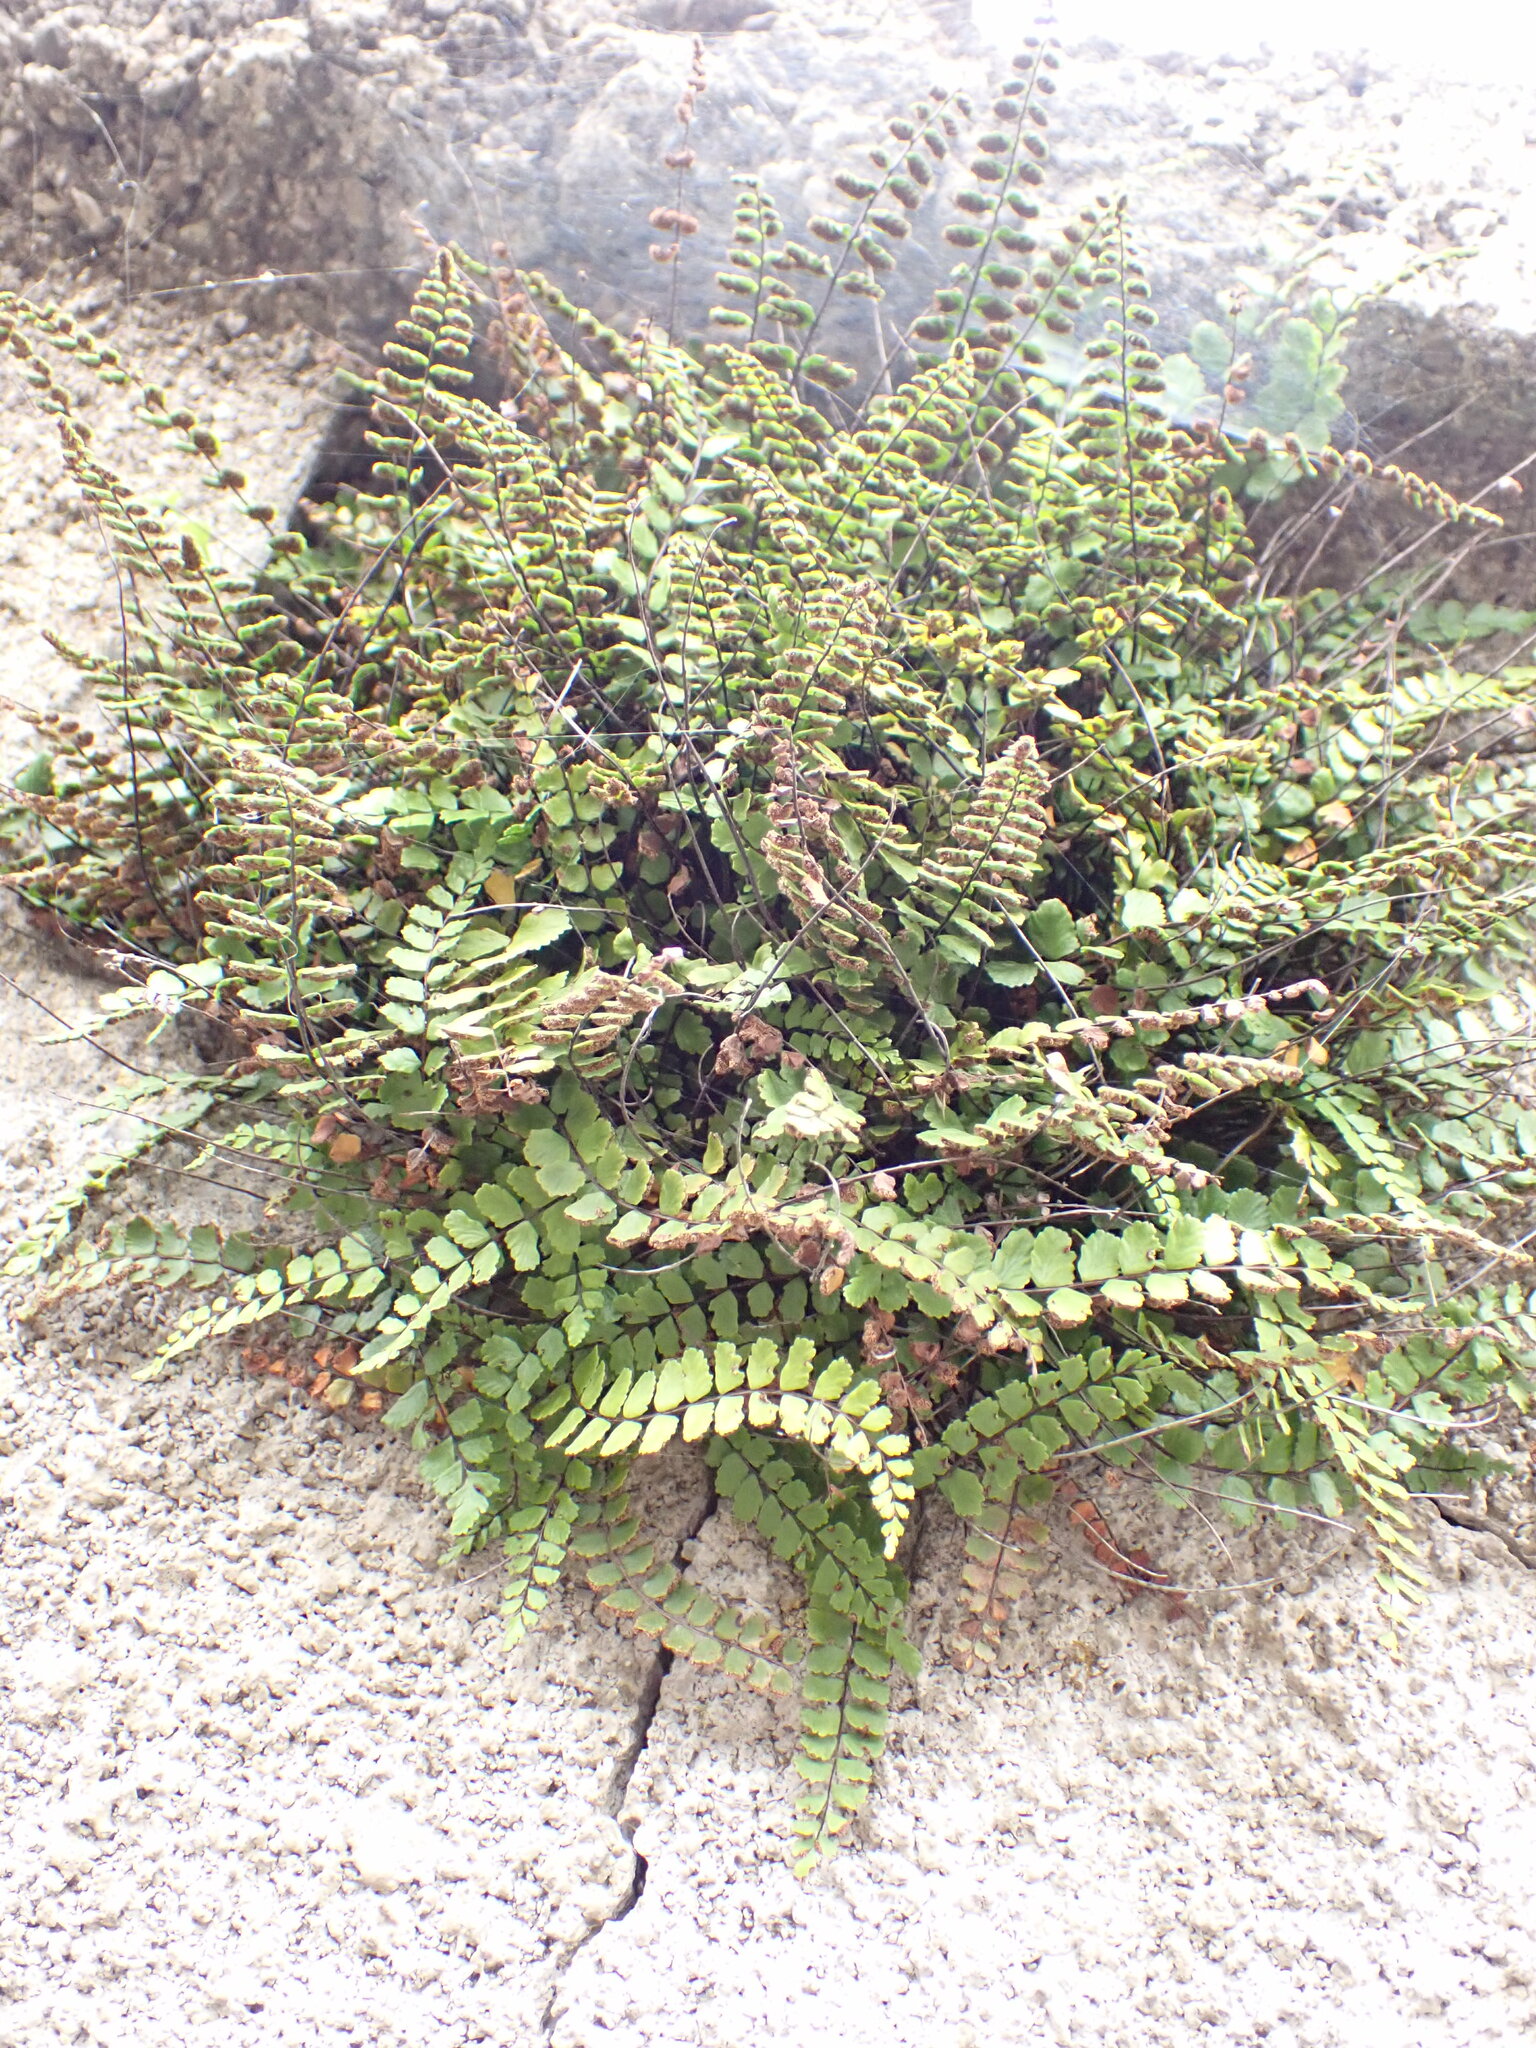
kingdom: Plantae
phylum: Tracheophyta
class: Polypodiopsida
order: Polypodiales
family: Aspleniaceae
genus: Asplenium
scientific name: Asplenium trichomanes
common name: Maidenhair spleenwort
